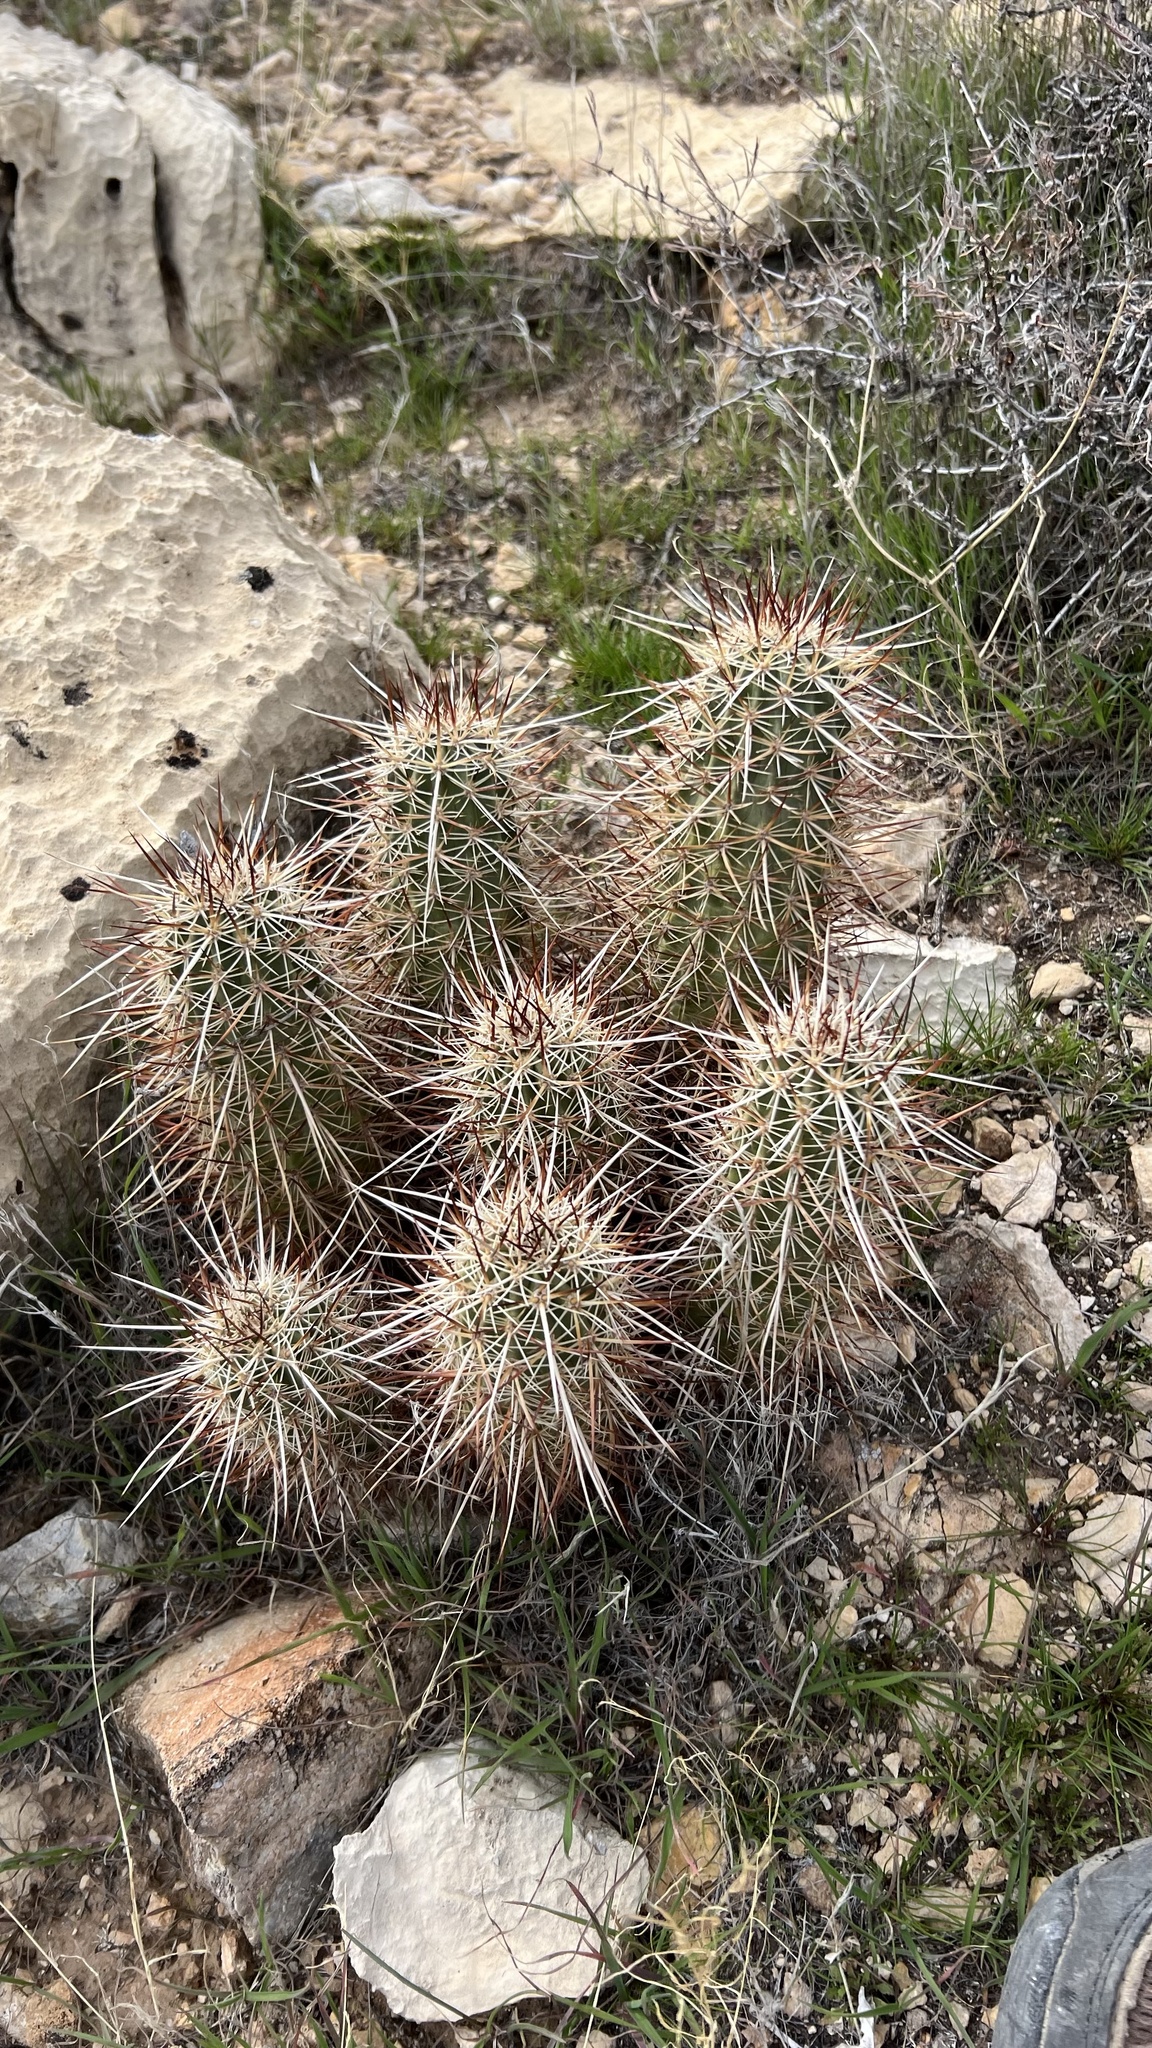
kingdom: Plantae
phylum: Tracheophyta
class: Magnoliopsida
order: Caryophyllales
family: Cactaceae
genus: Echinocereus
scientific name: Echinocereus engelmannii
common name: Engelmann's hedgehog cactus
